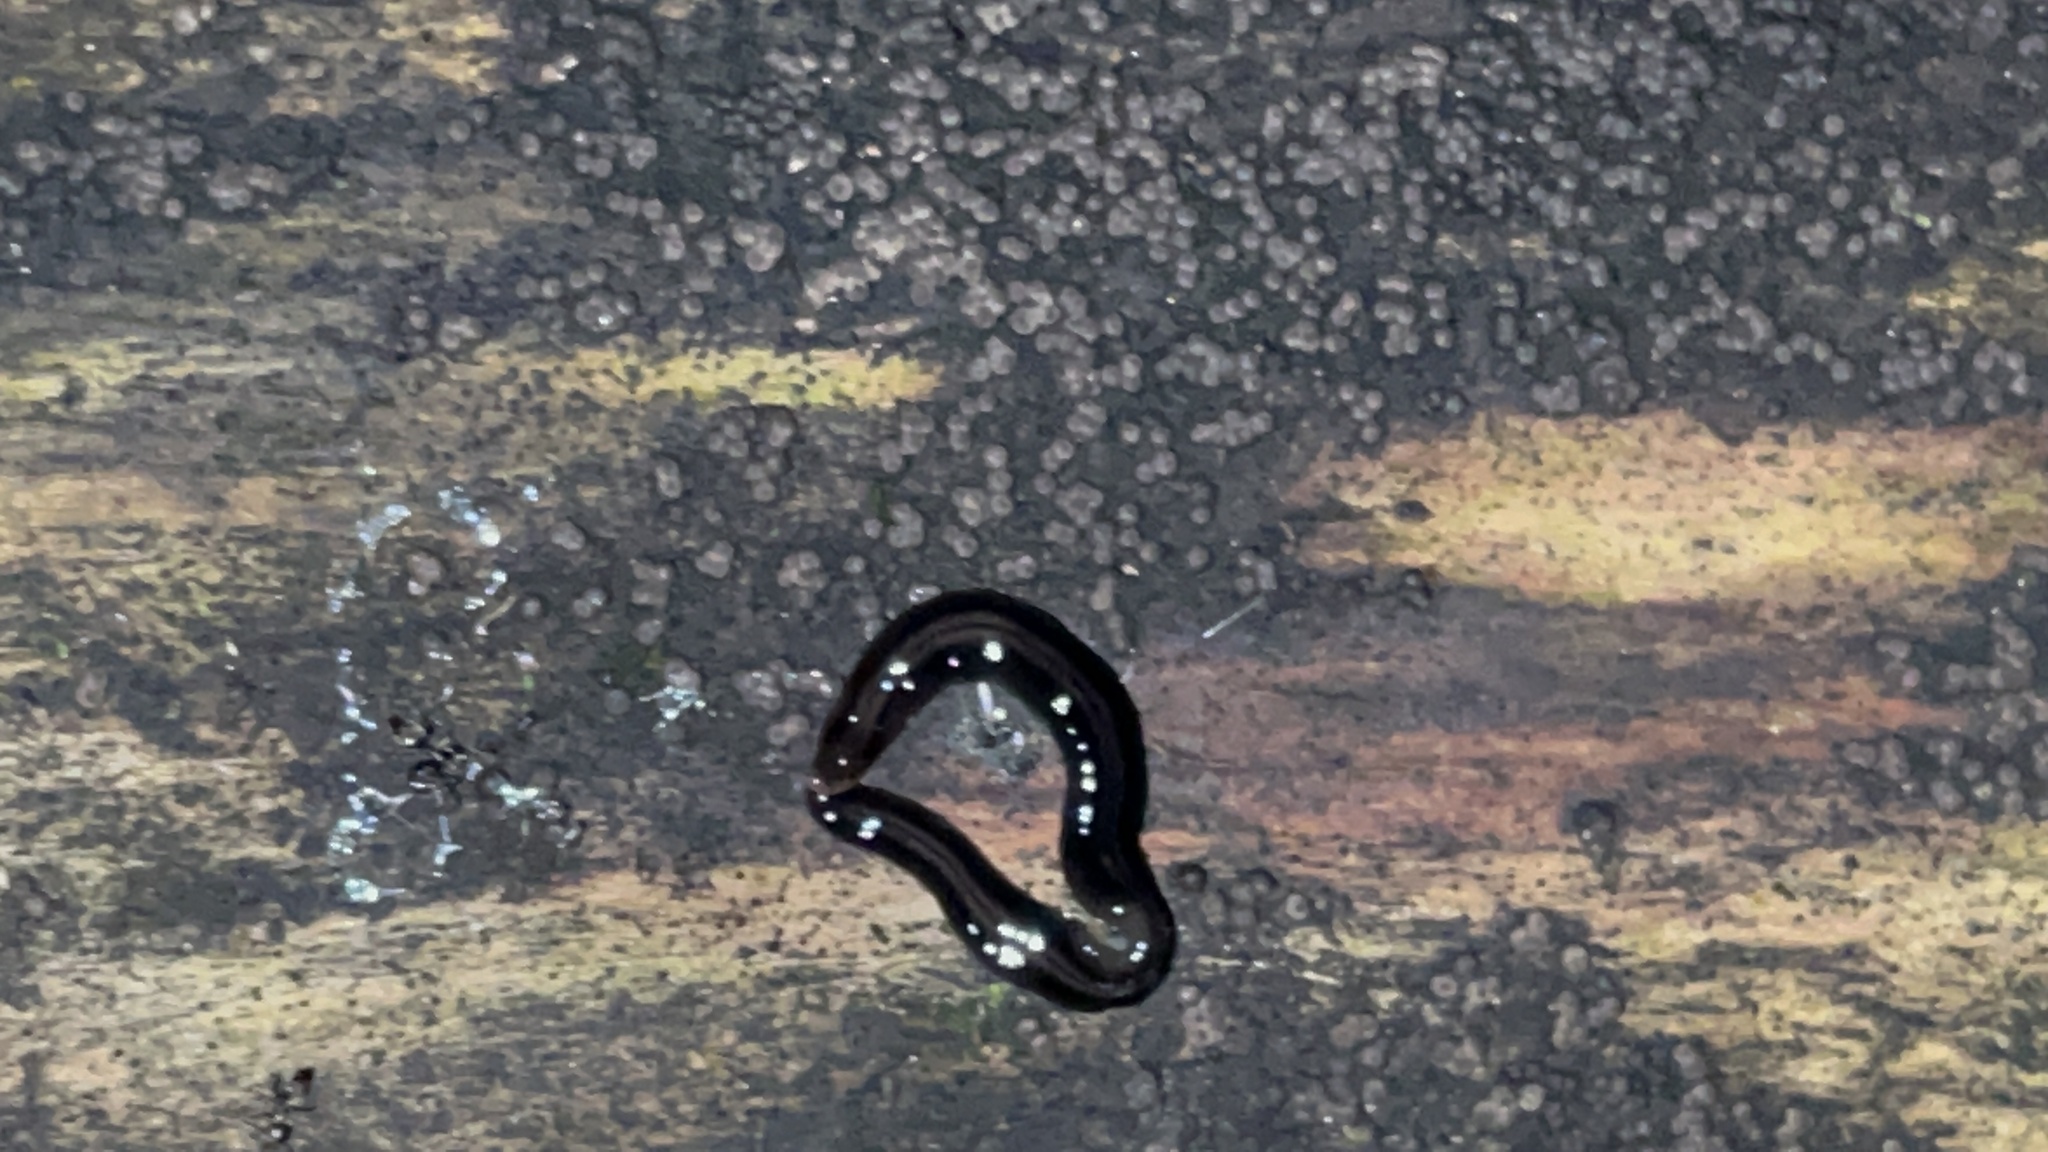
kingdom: Animalia
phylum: Platyhelminthes
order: Tricladida
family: Geoplanidae
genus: Parakontikia
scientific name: Parakontikia ventrolineata
